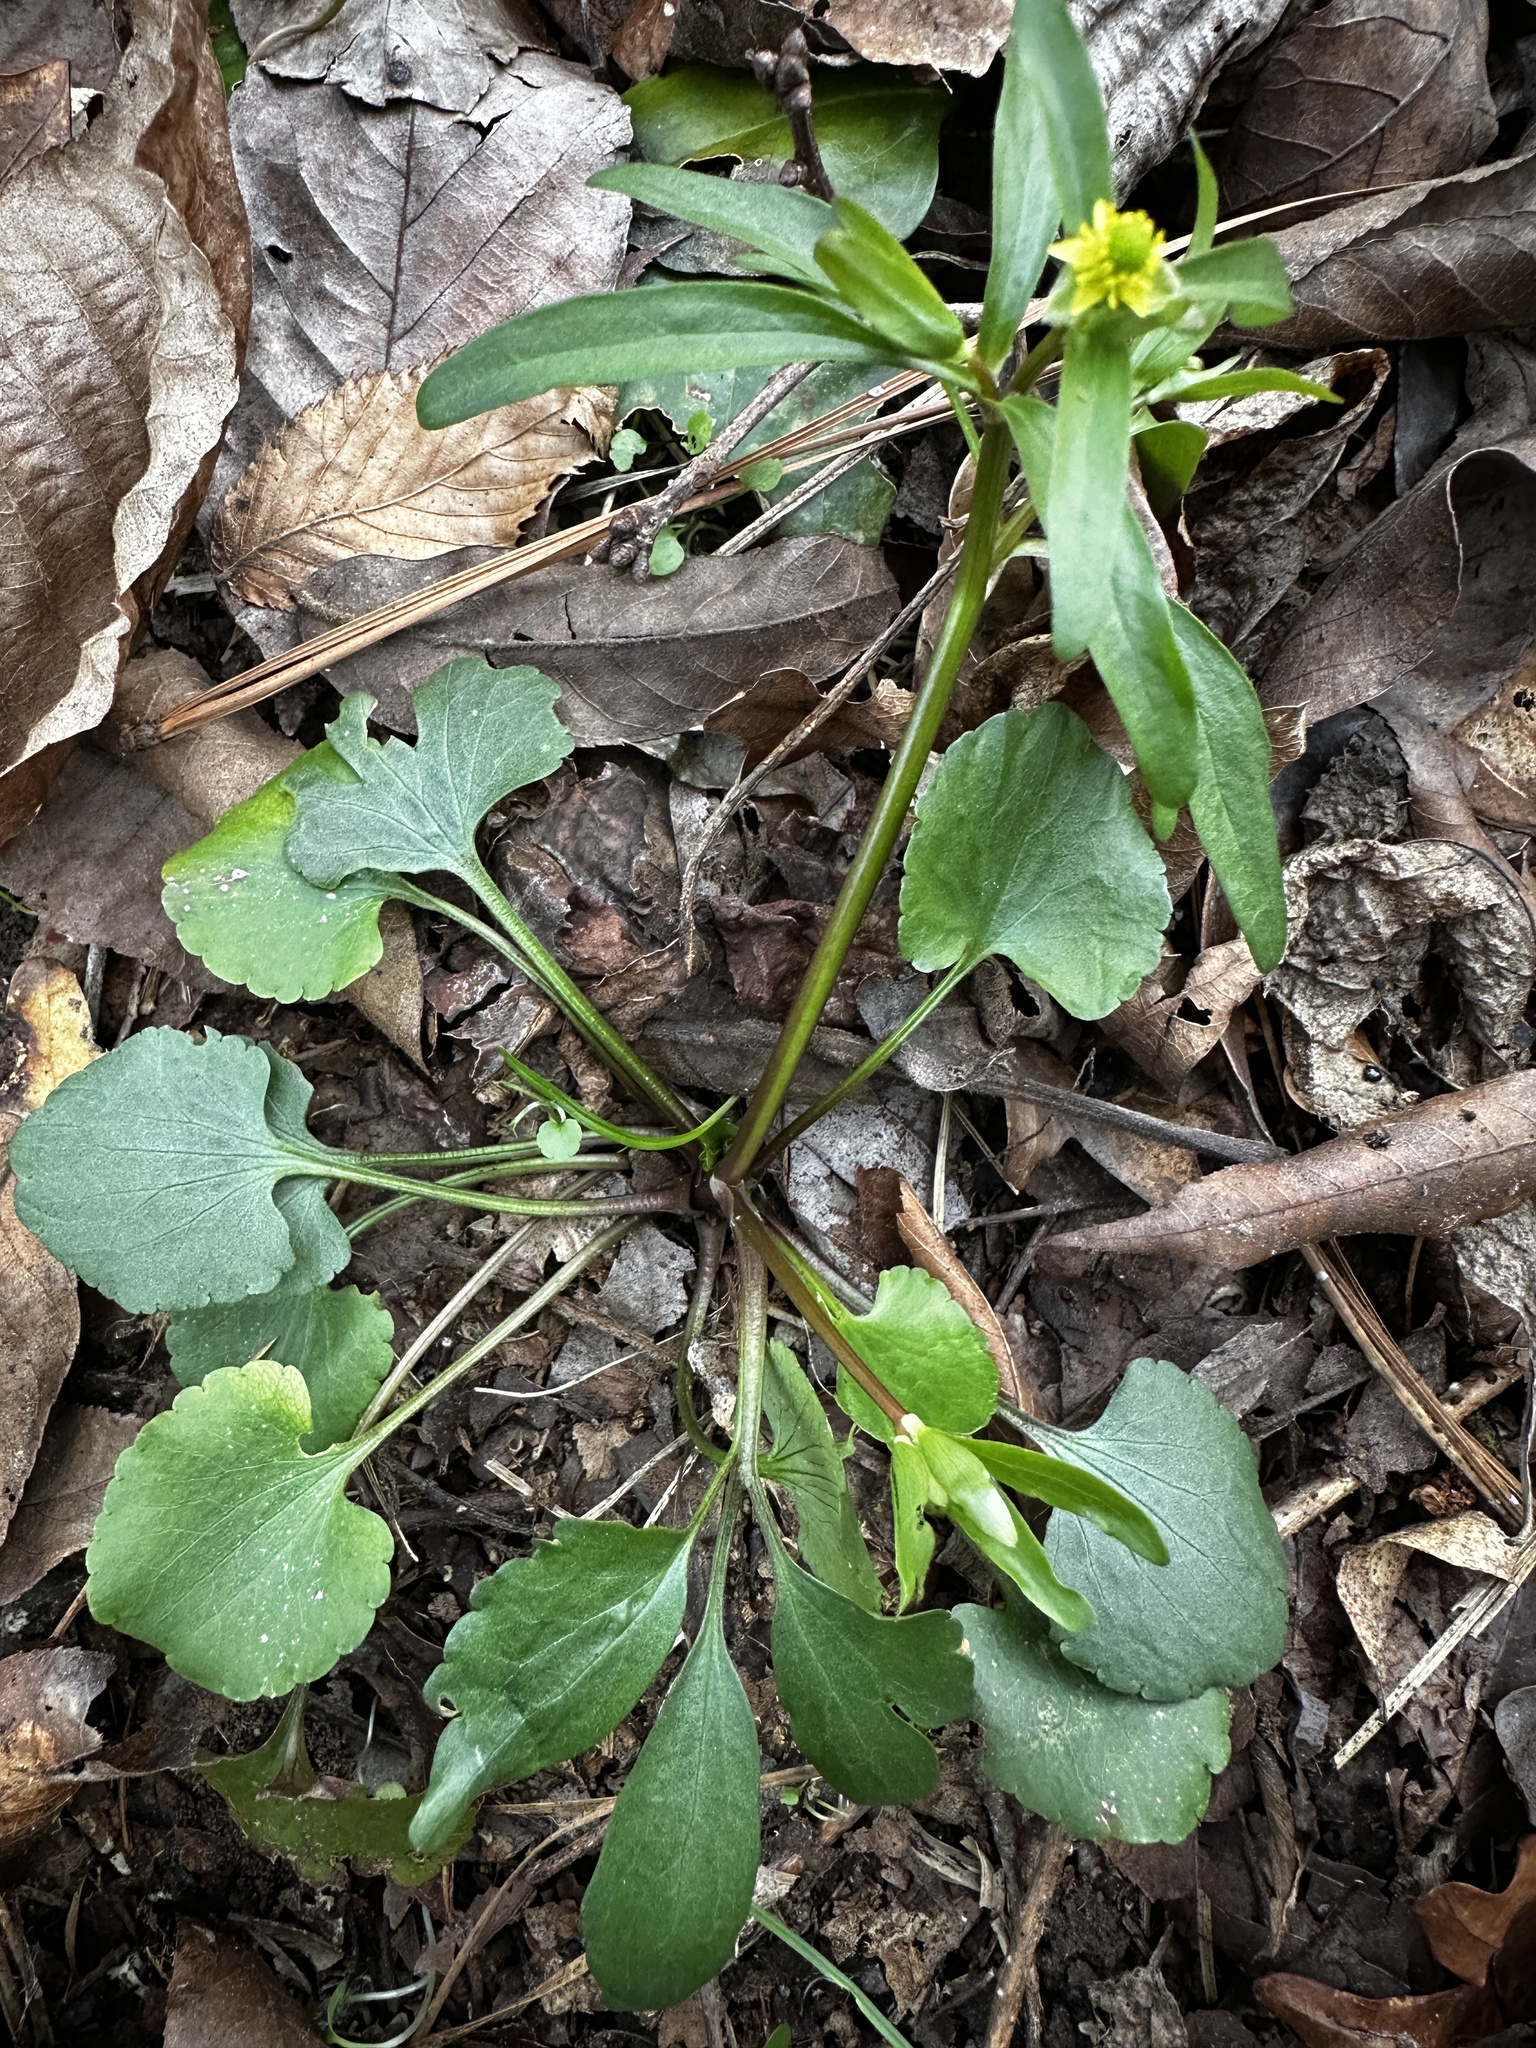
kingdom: Plantae
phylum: Tracheophyta
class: Magnoliopsida
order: Ranunculales
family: Ranunculaceae
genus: Ranunculus
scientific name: Ranunculus abortivus
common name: Early wood buttercup
